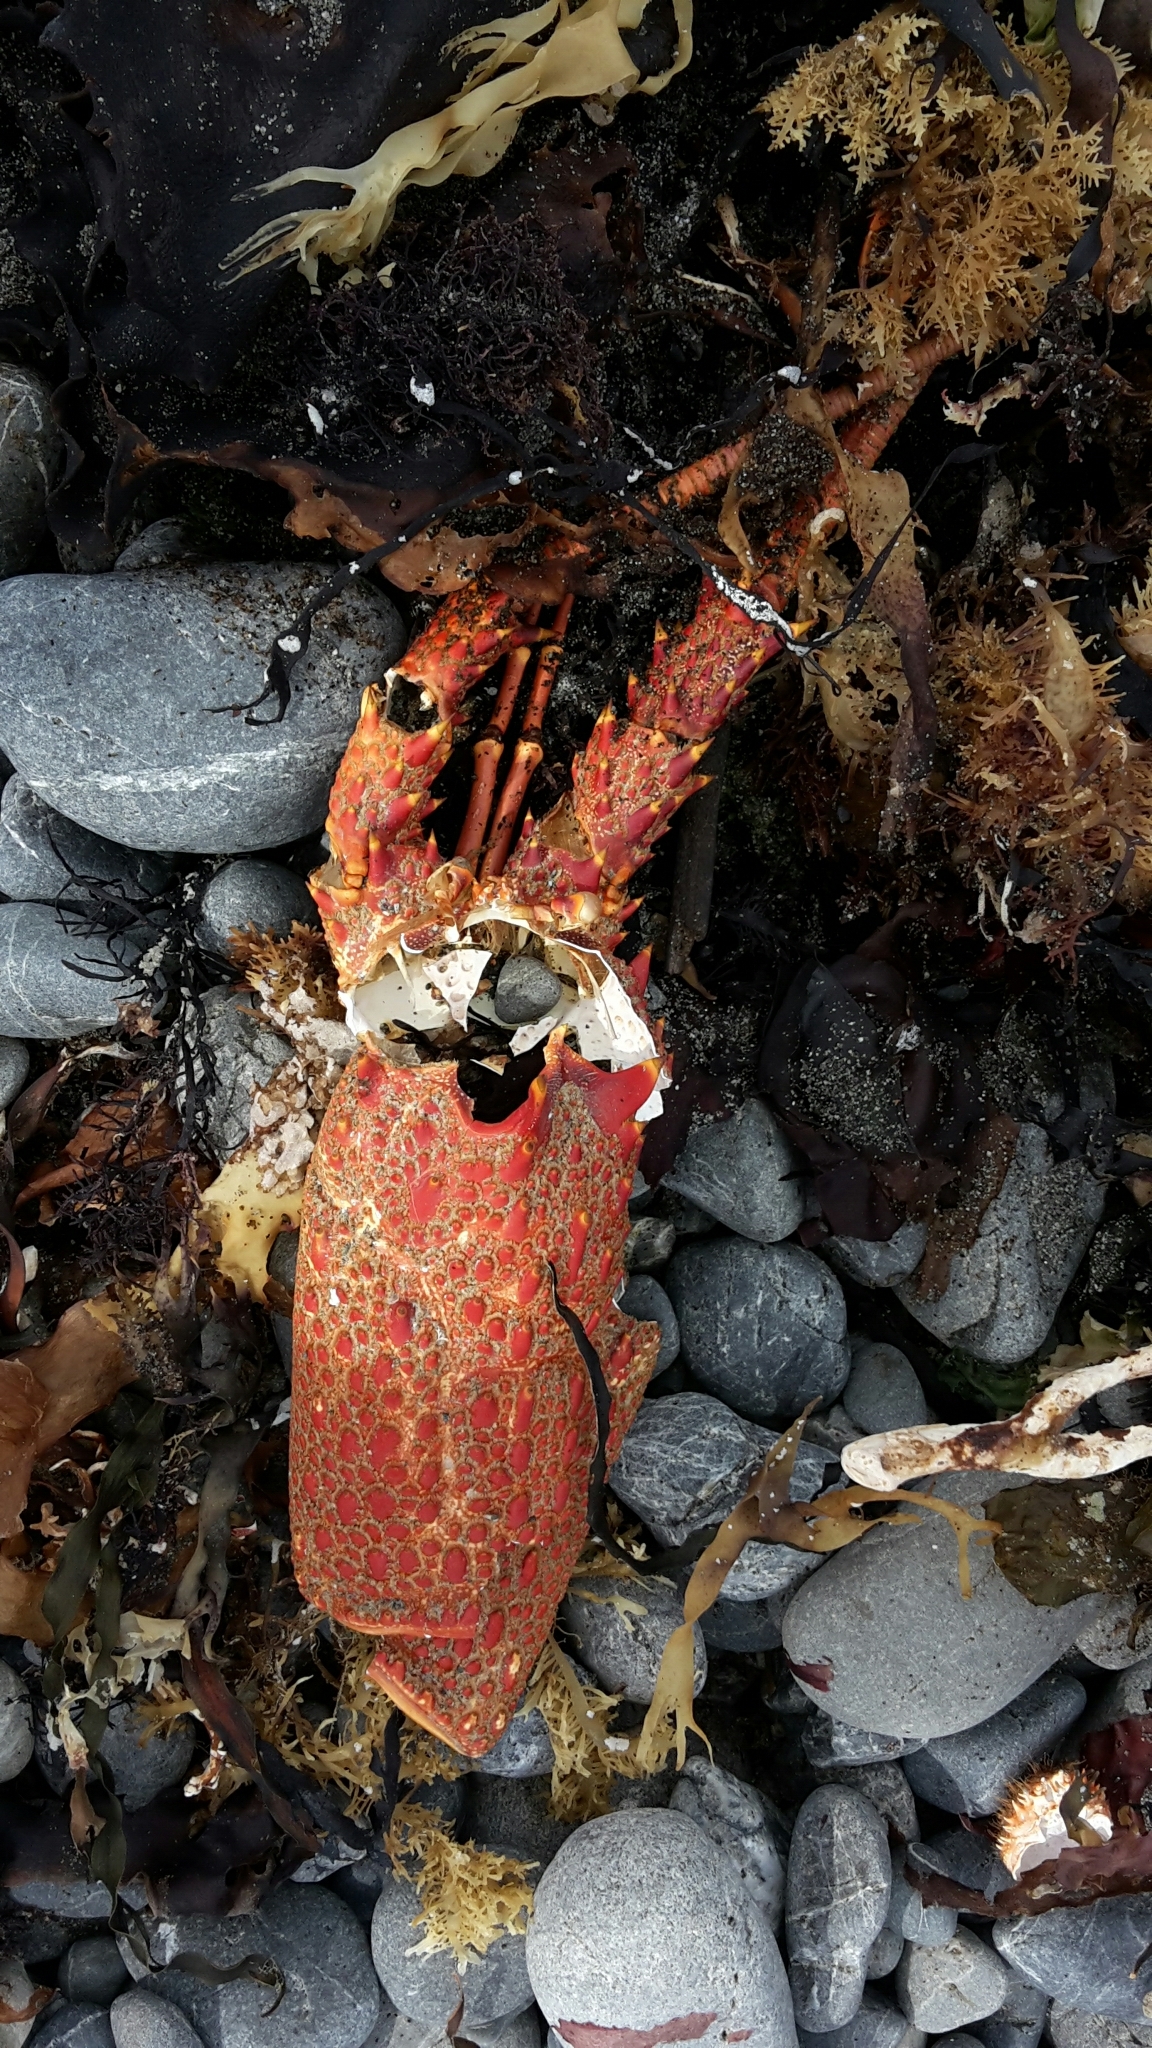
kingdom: Animalia
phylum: Arthropoda
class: Malacostraca
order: Decapoda
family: Palinuridae
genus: Jasus
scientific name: Jasus edwardsii
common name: Red rock lobster
